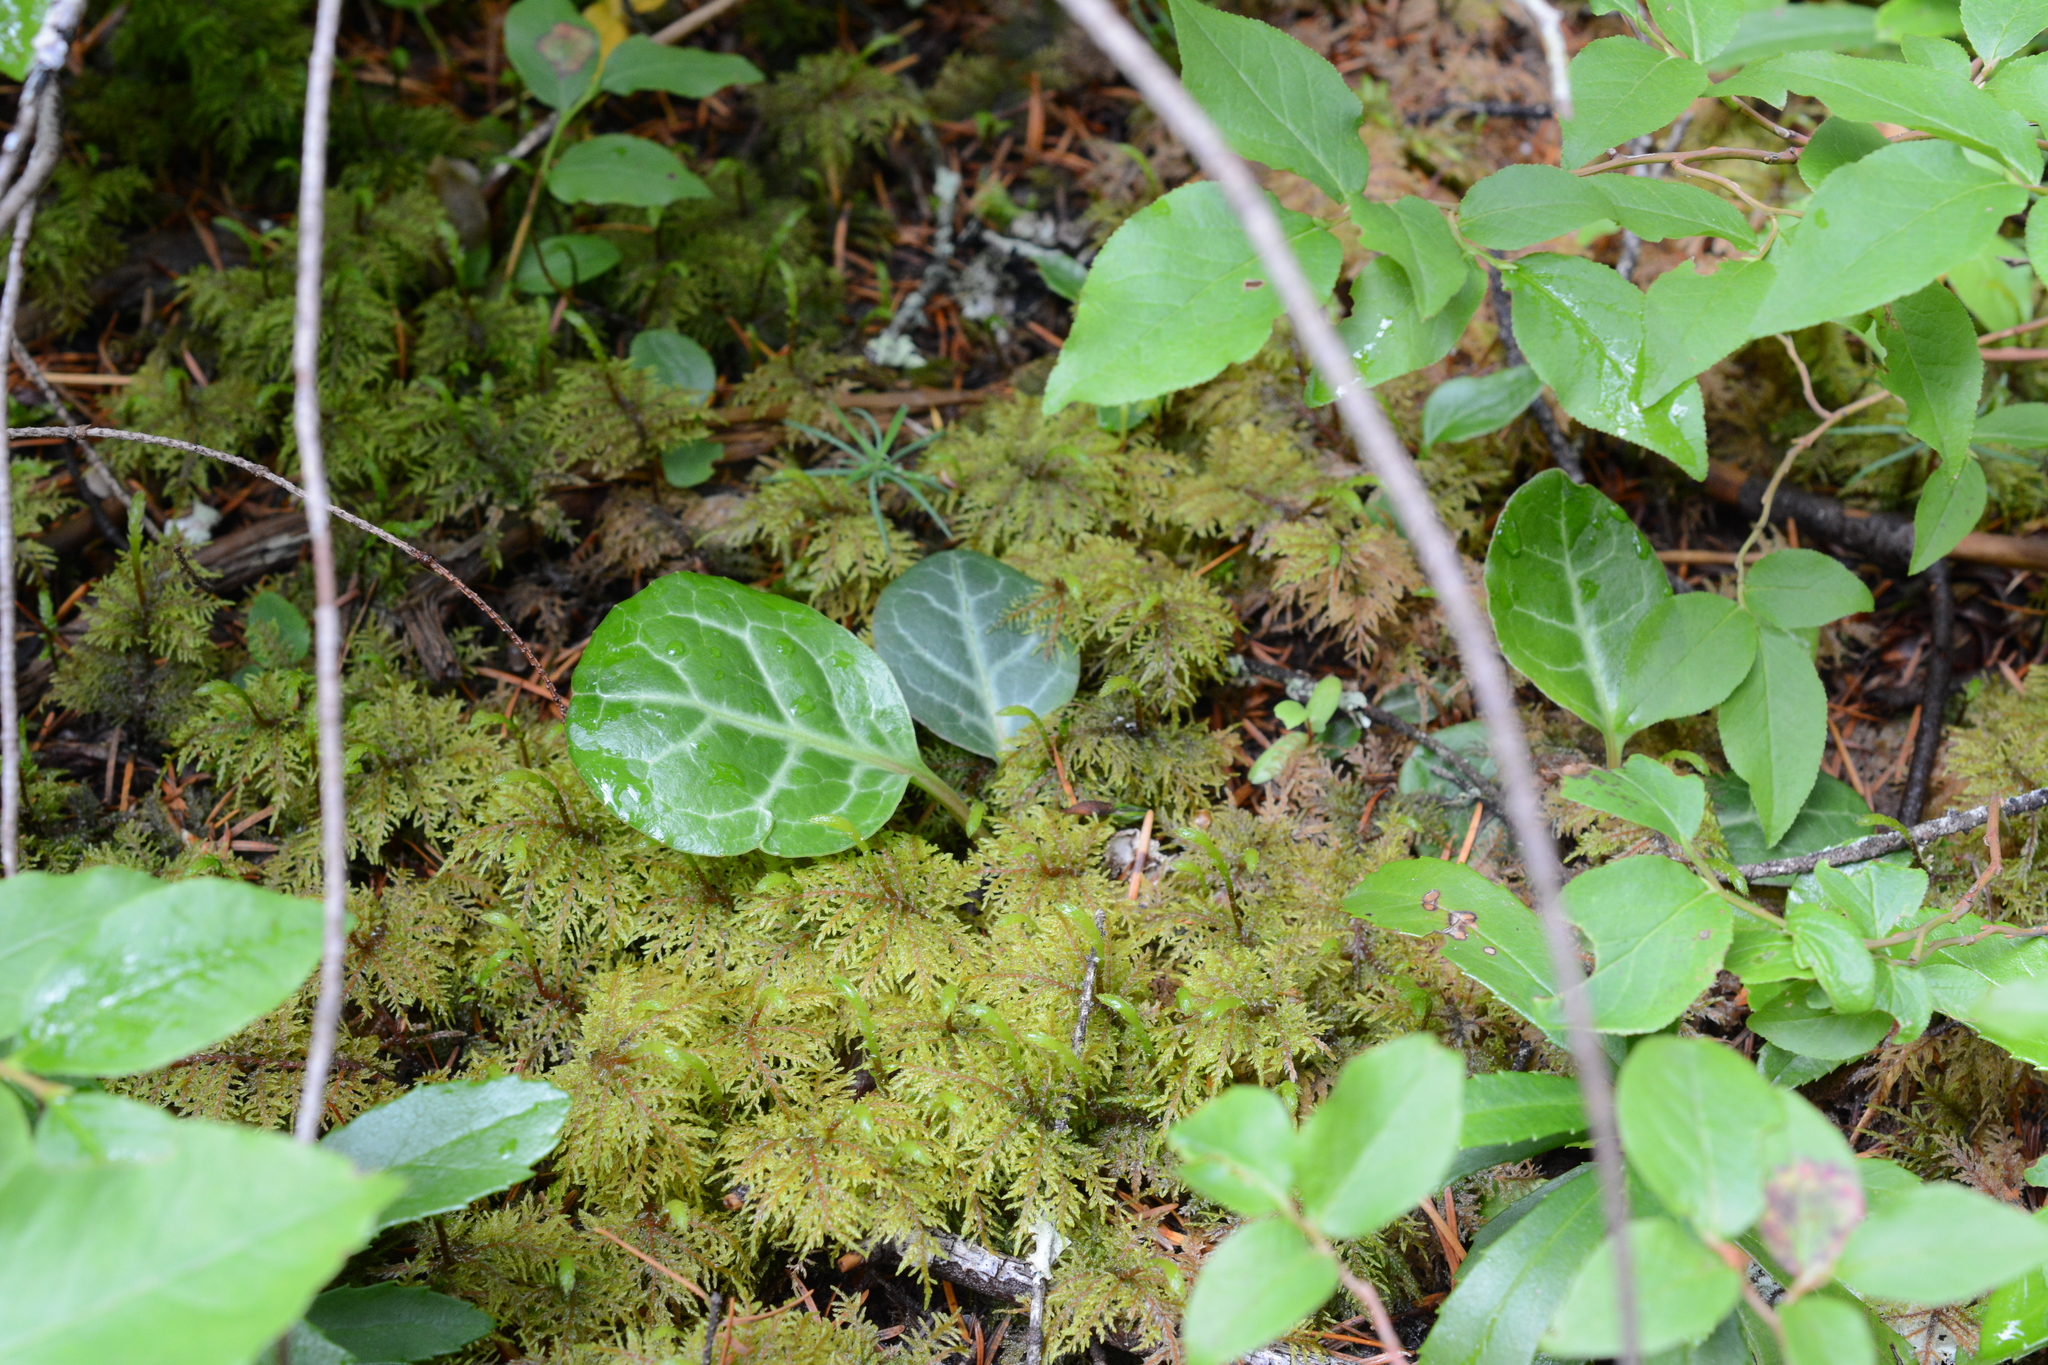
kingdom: Plantae
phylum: Tracheophyta
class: Magnoliopsida
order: Ericales
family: Ericaceae
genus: Pyrola
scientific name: Pyrola picta
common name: White-vein wintergreen
